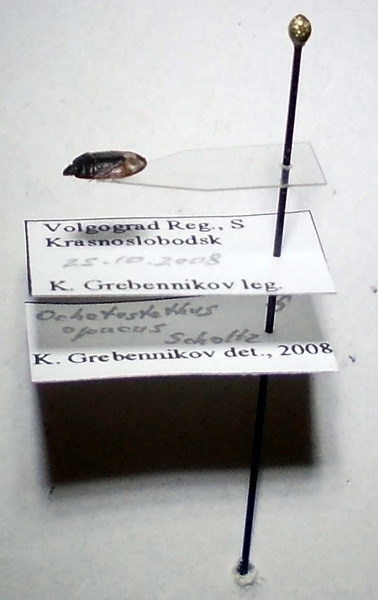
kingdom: Animalia
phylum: Arthropoda
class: Insecta
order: Hemiptera
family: Cydnidae
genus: Ochetostethus
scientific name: Ochetostethus opacus
